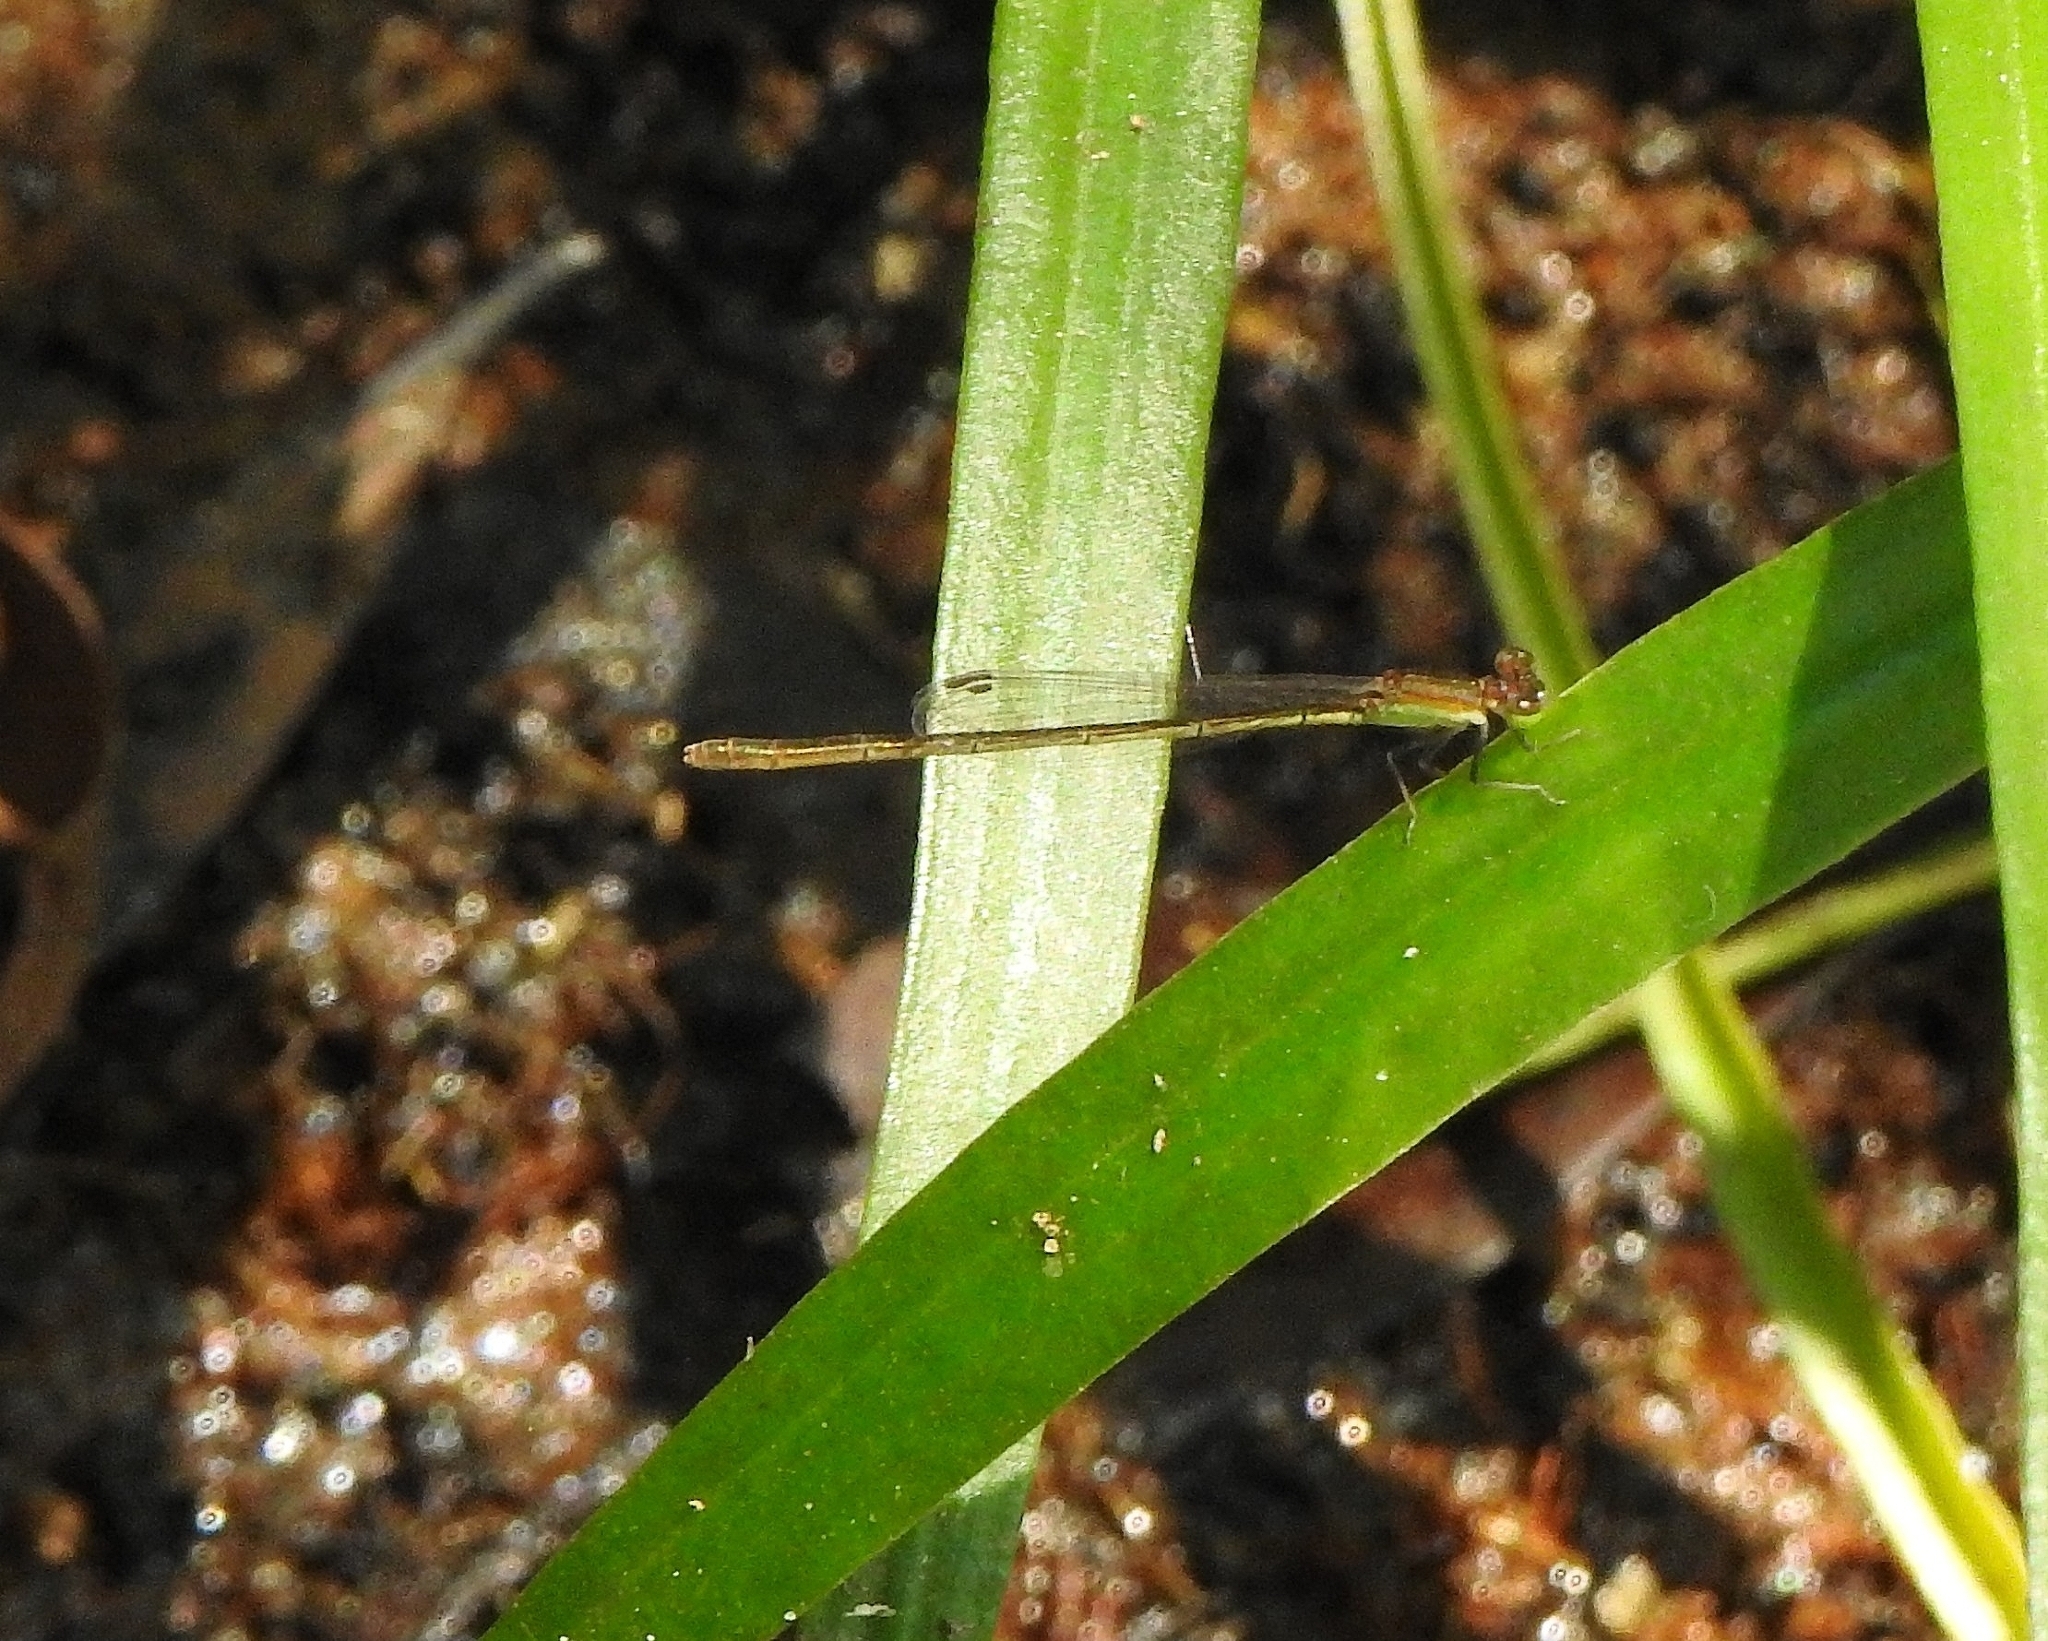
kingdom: Animalia
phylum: Arthropoda
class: Insecta
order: Odonata
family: Coenagrionidae
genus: Agriocnemis
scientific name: Agriocnemis pygmaea
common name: Pygmy wisp
